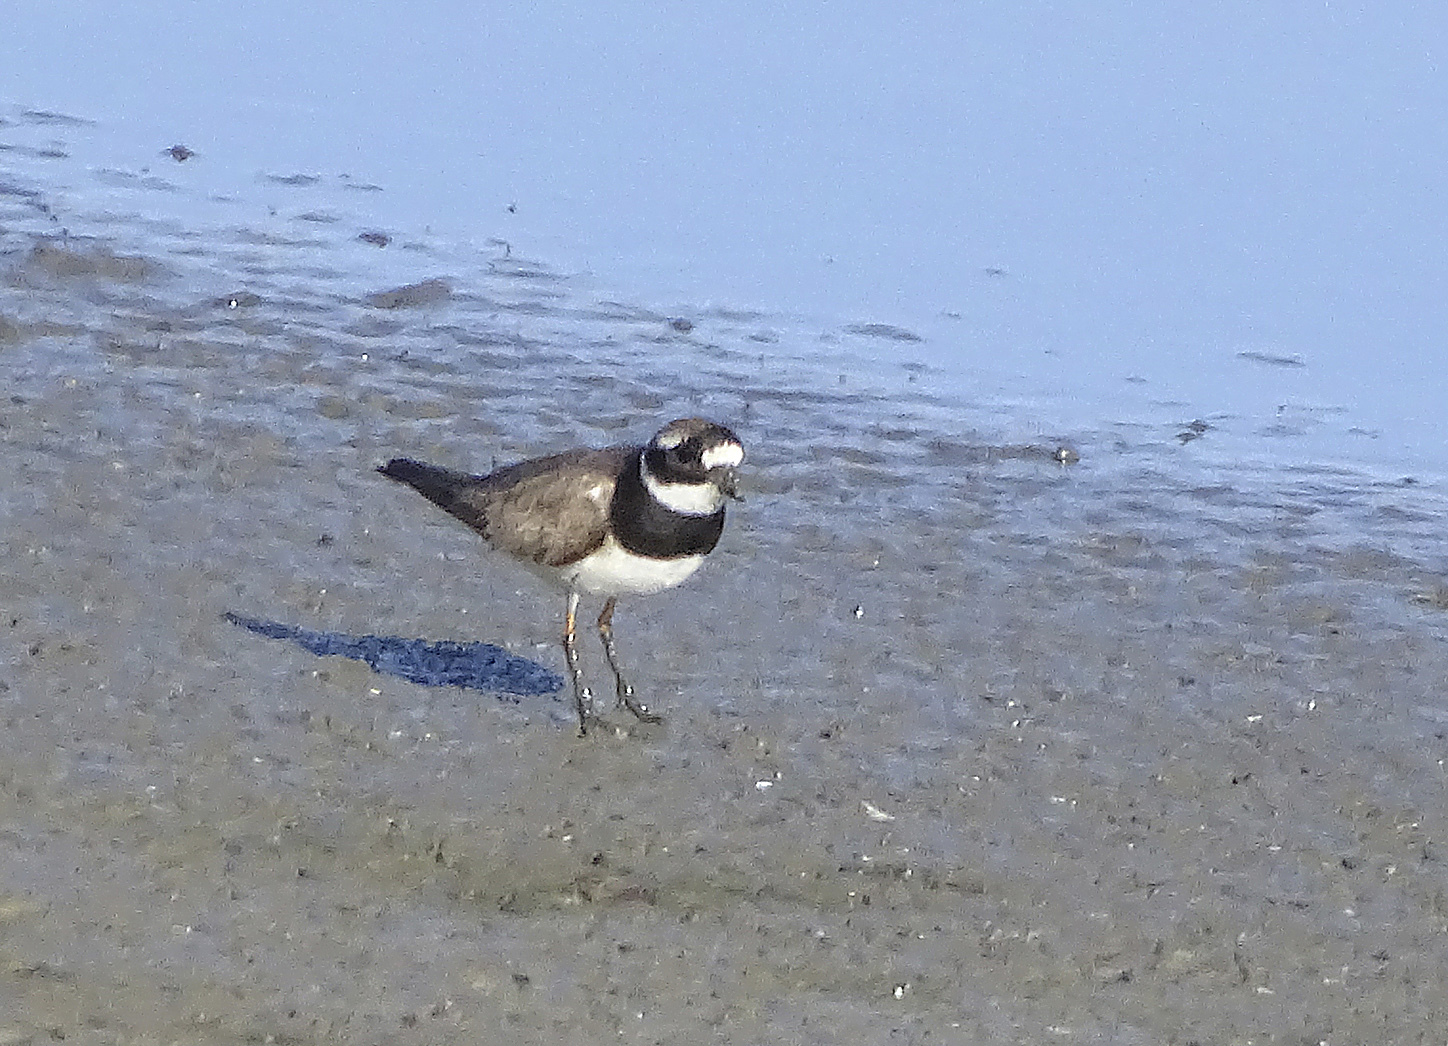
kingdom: Animalia
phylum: Chordata
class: Aves
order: Charadriiformes
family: Charadriidae
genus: Charadrius
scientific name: Charadrius hiaticula
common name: Common ringed plover
